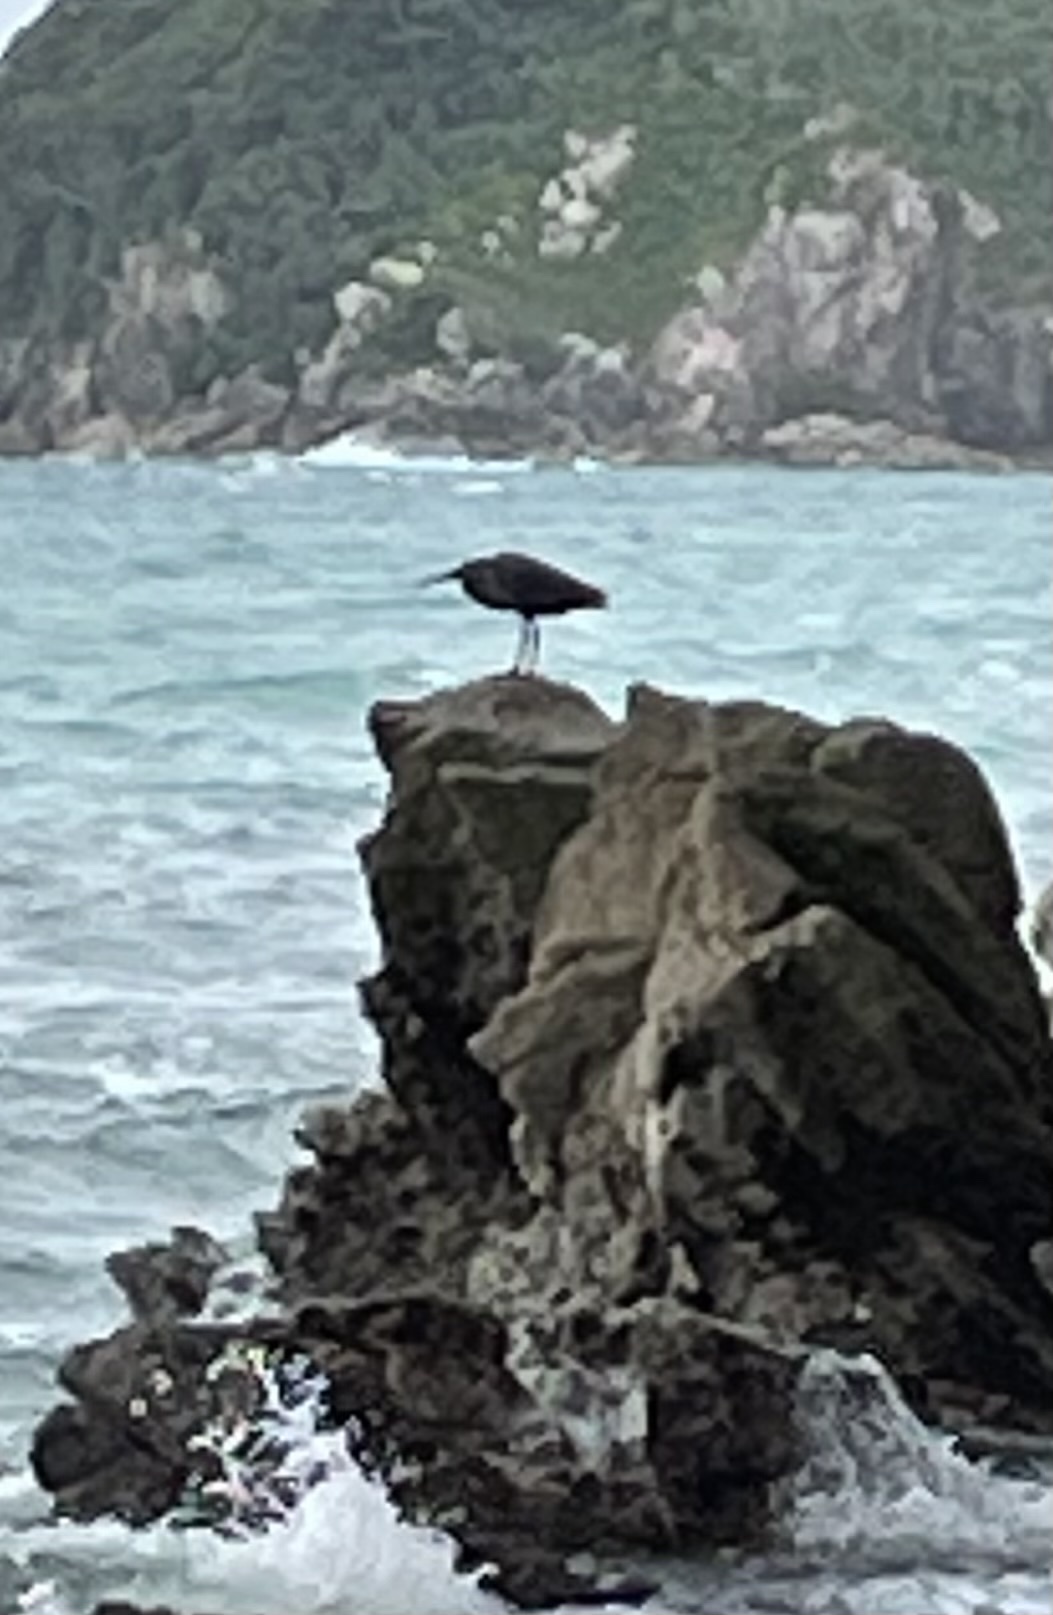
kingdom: Animalia
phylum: Chordata
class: Aves
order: Pelecaniformes
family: Ardeidae
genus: Egretta
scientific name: Egretta sacra
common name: Pacific reef heron
